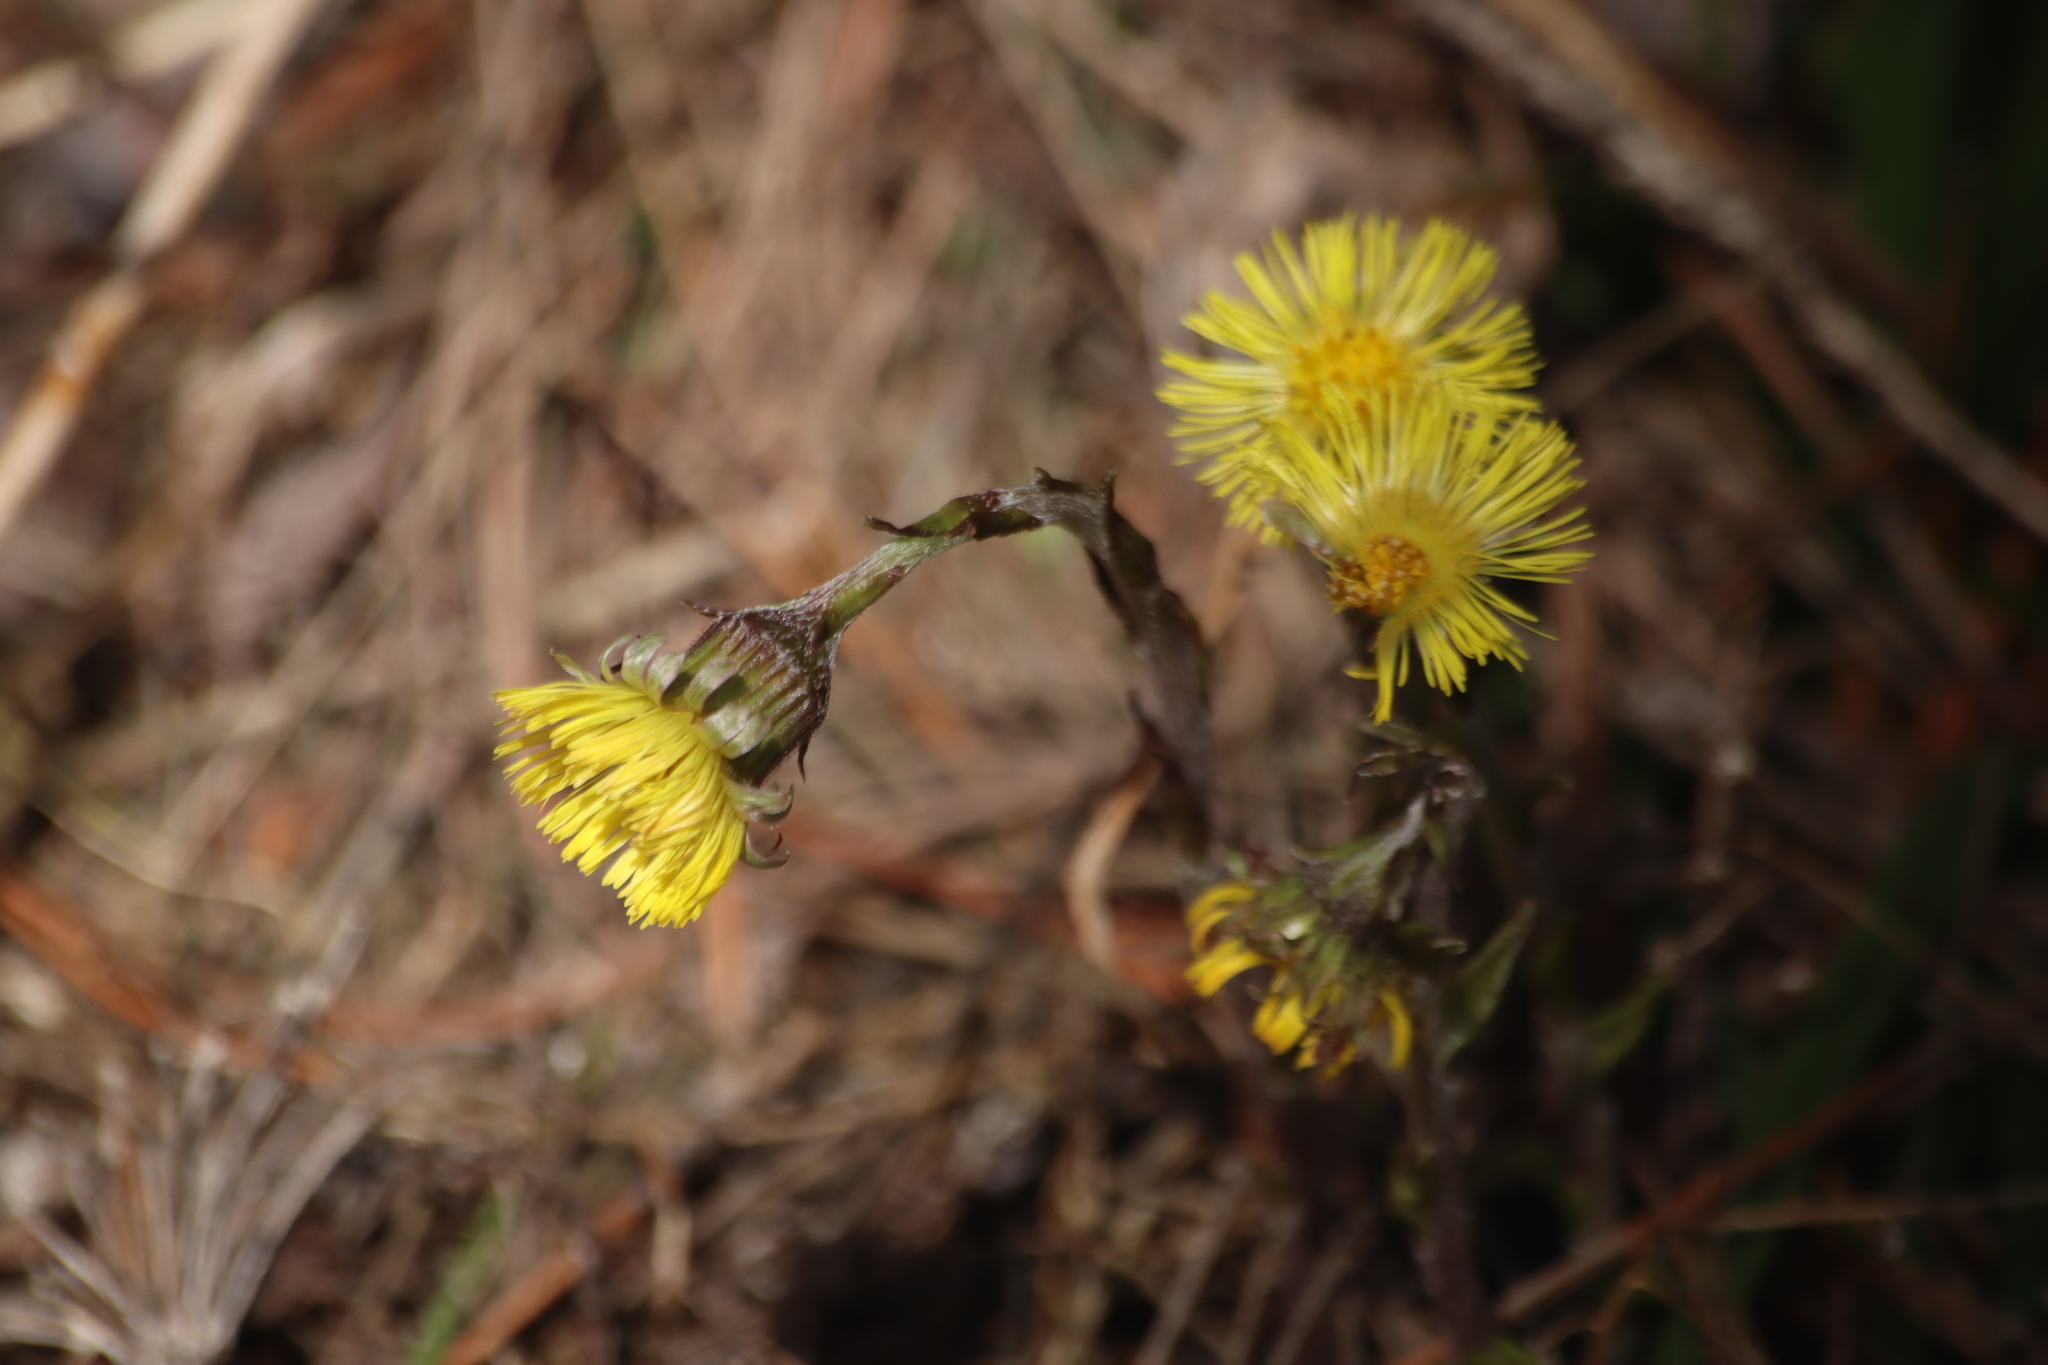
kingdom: Plantae
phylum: Tracheophyta
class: Magnoliopsida
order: Asterales
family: Asteraceae
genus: Tussilago
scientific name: Tussilago farfara
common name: Coltsfoot
